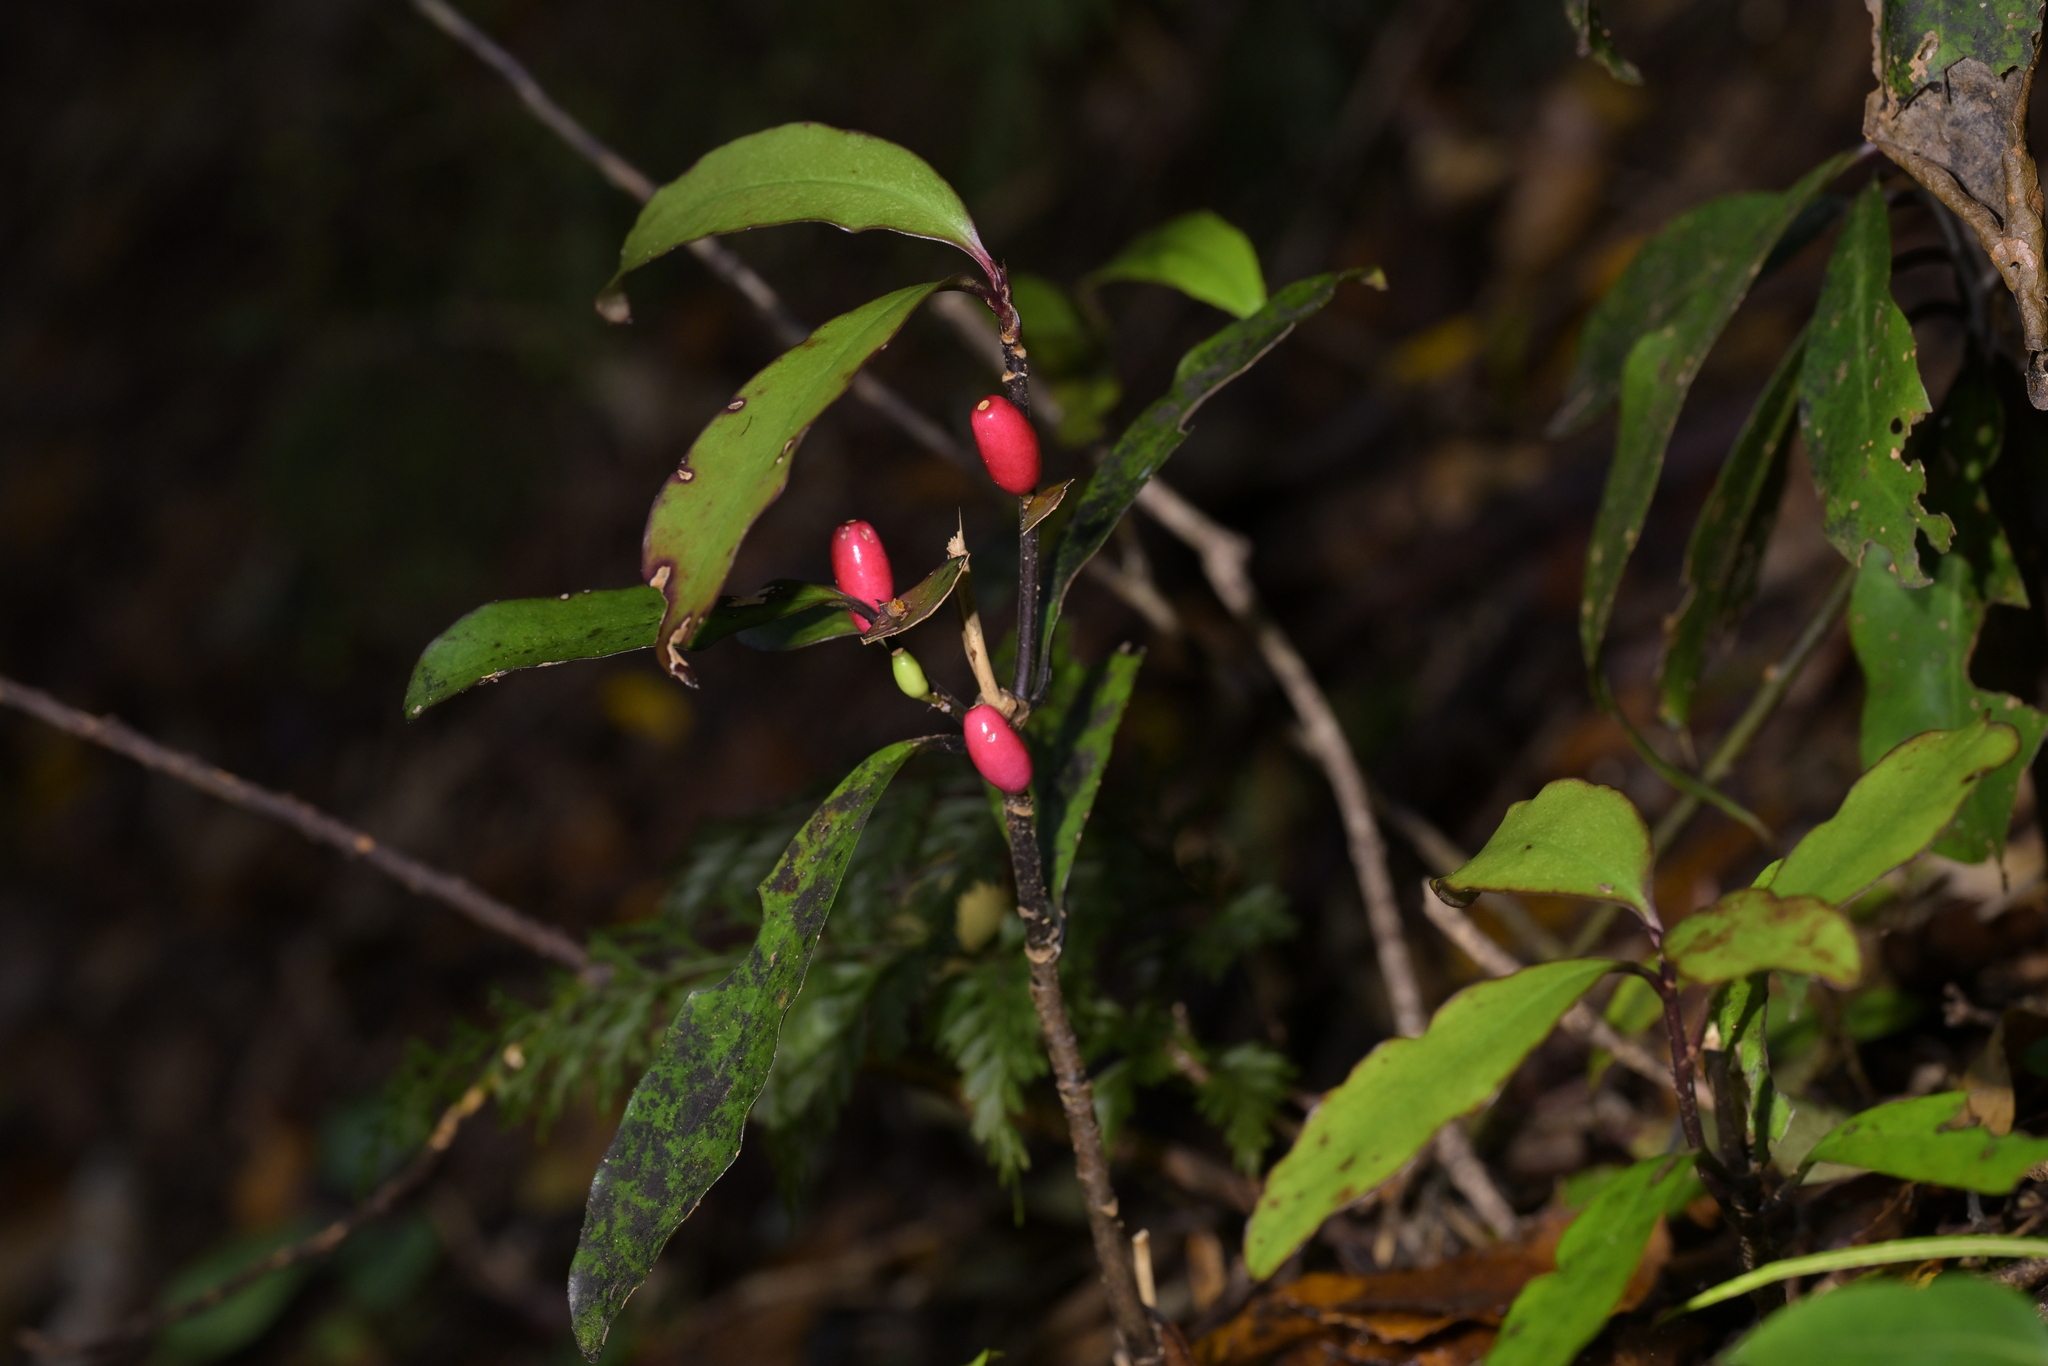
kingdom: Plantae
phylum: Tracheophyta
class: Magnoliopsida
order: Asterales
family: Alseuosmiaceae
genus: Alseuosmia
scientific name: Alseuosmia pusilla
